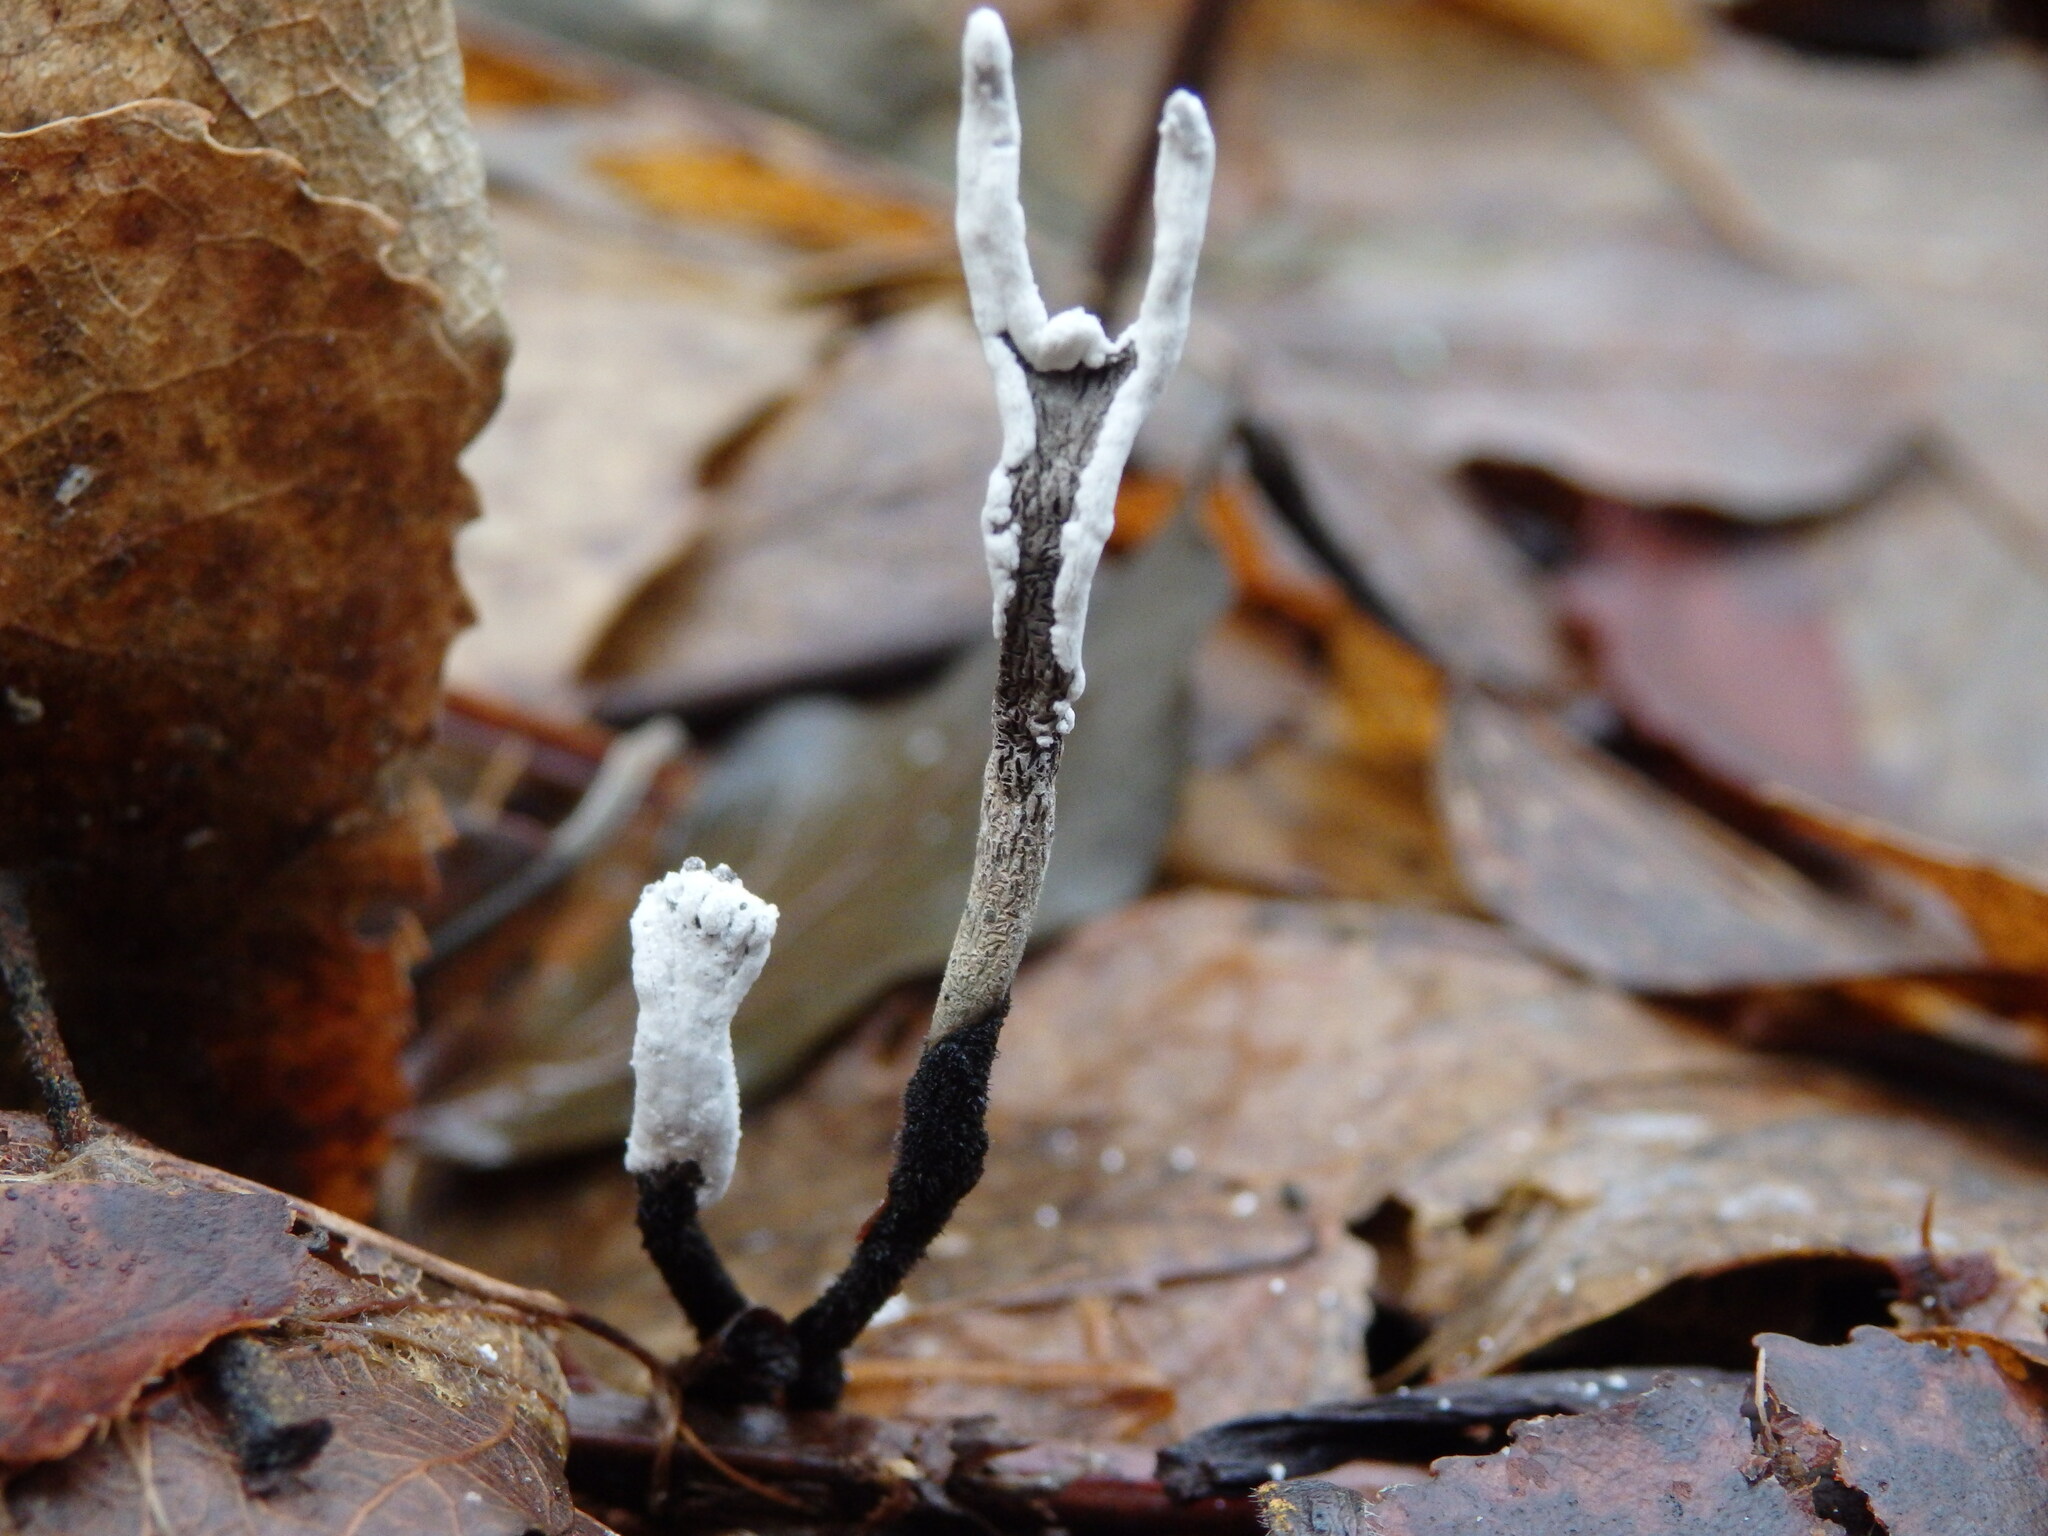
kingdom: Fungi
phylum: Ascomycota
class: Sordariomycetes
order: Xylariales
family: Xylariaceae
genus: Xylaria
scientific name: Xylaria hypoxylon
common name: Candle-snuff fungus
